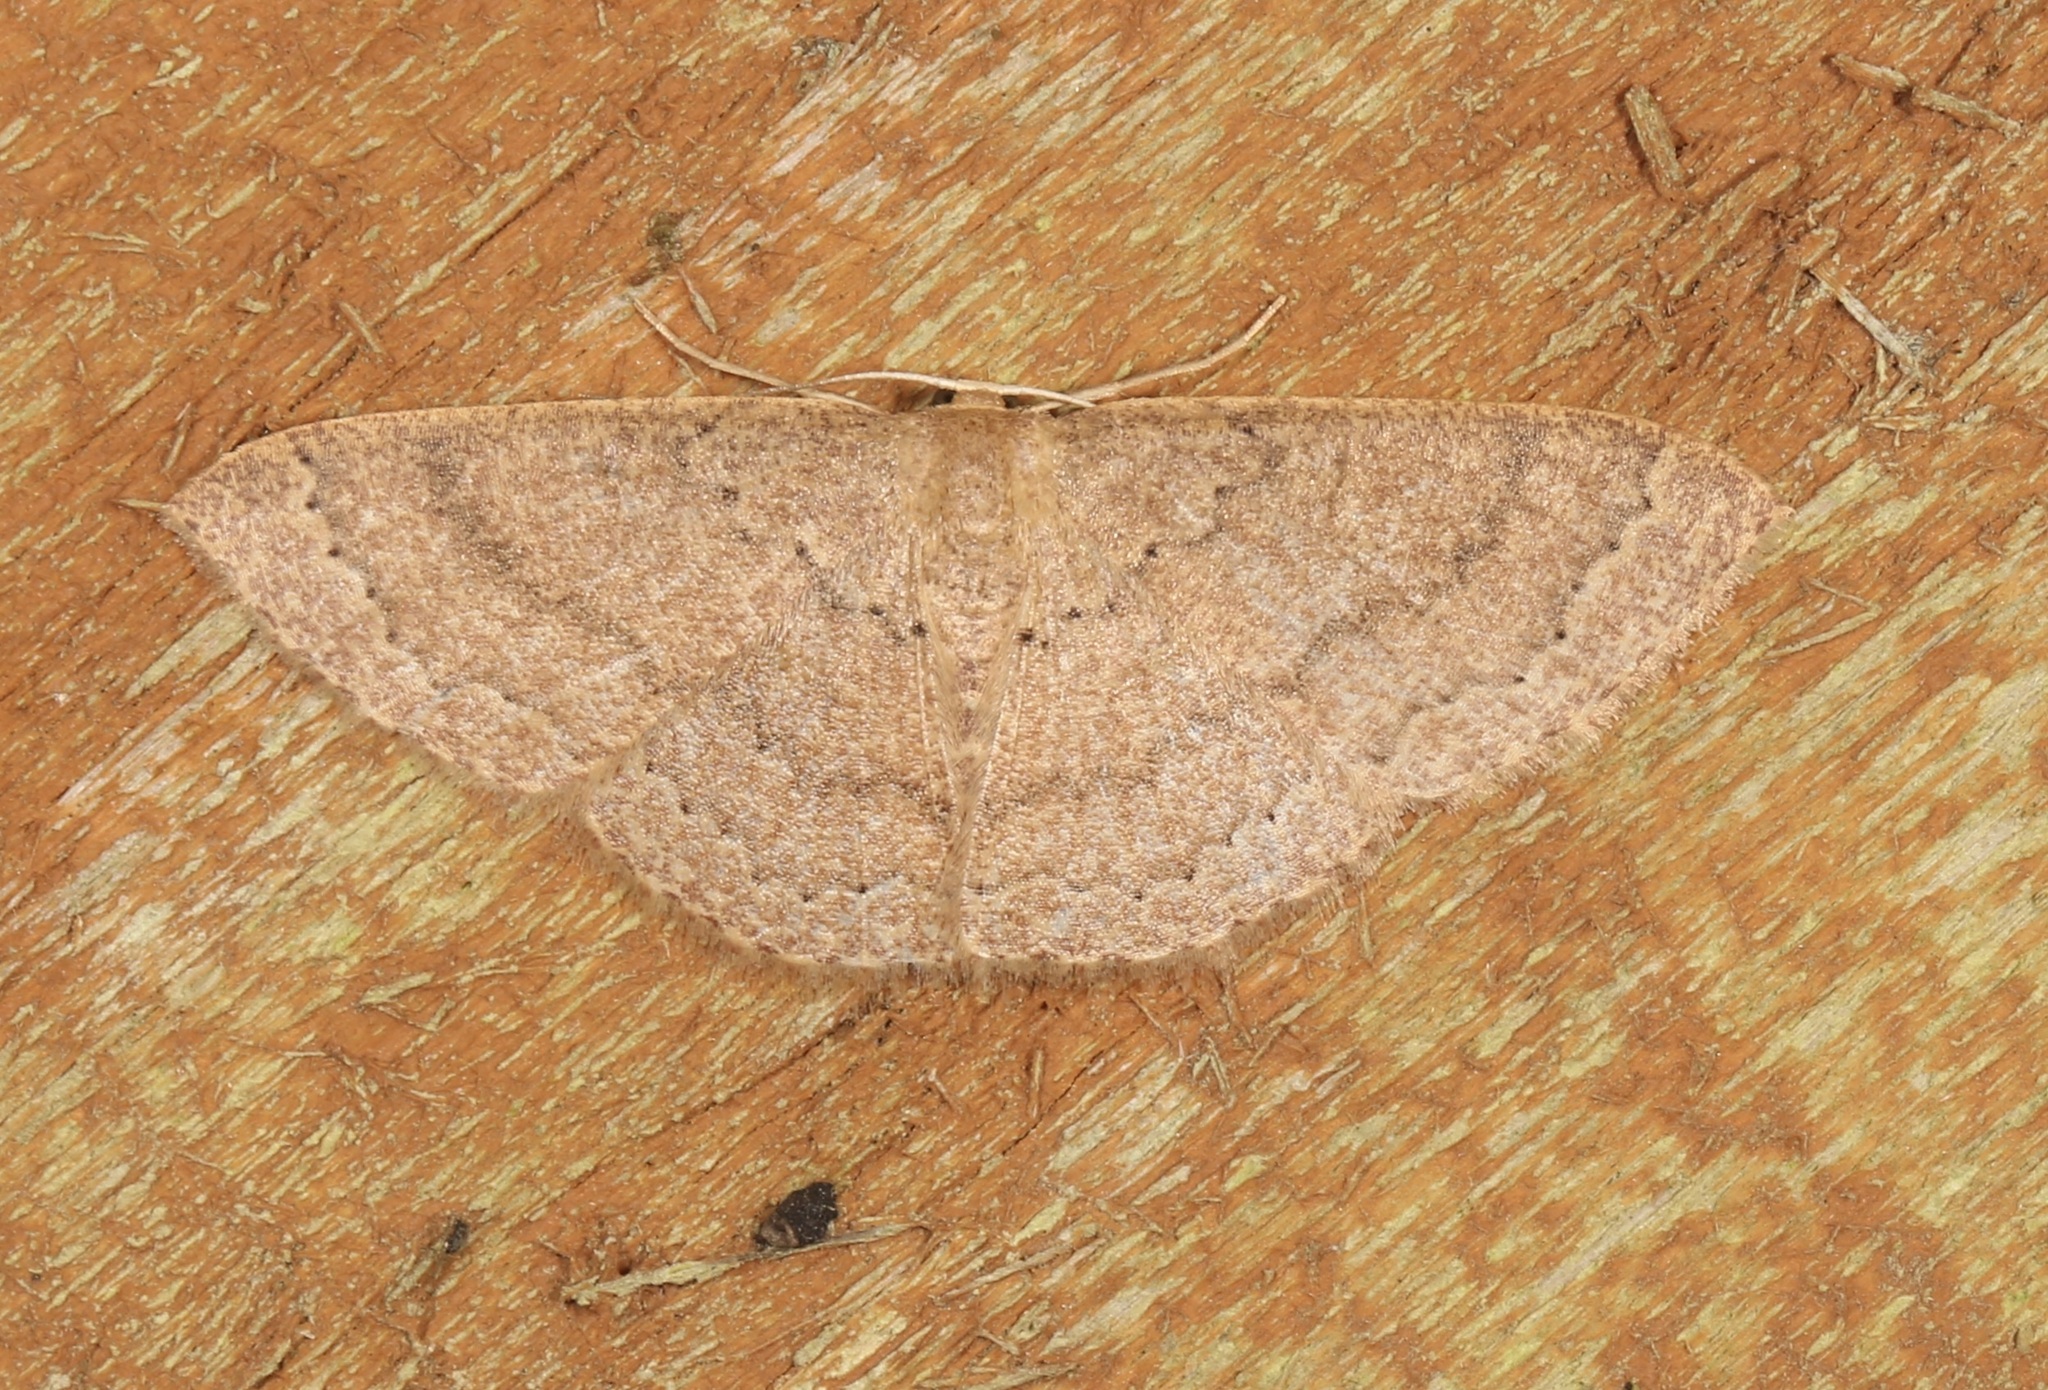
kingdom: Animalia
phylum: Arthropoda
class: Insecta
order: Lepidoptera
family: Geometridae
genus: Pleuroprucha
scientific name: Pleuroprucha insulsaria
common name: Common tan wave
